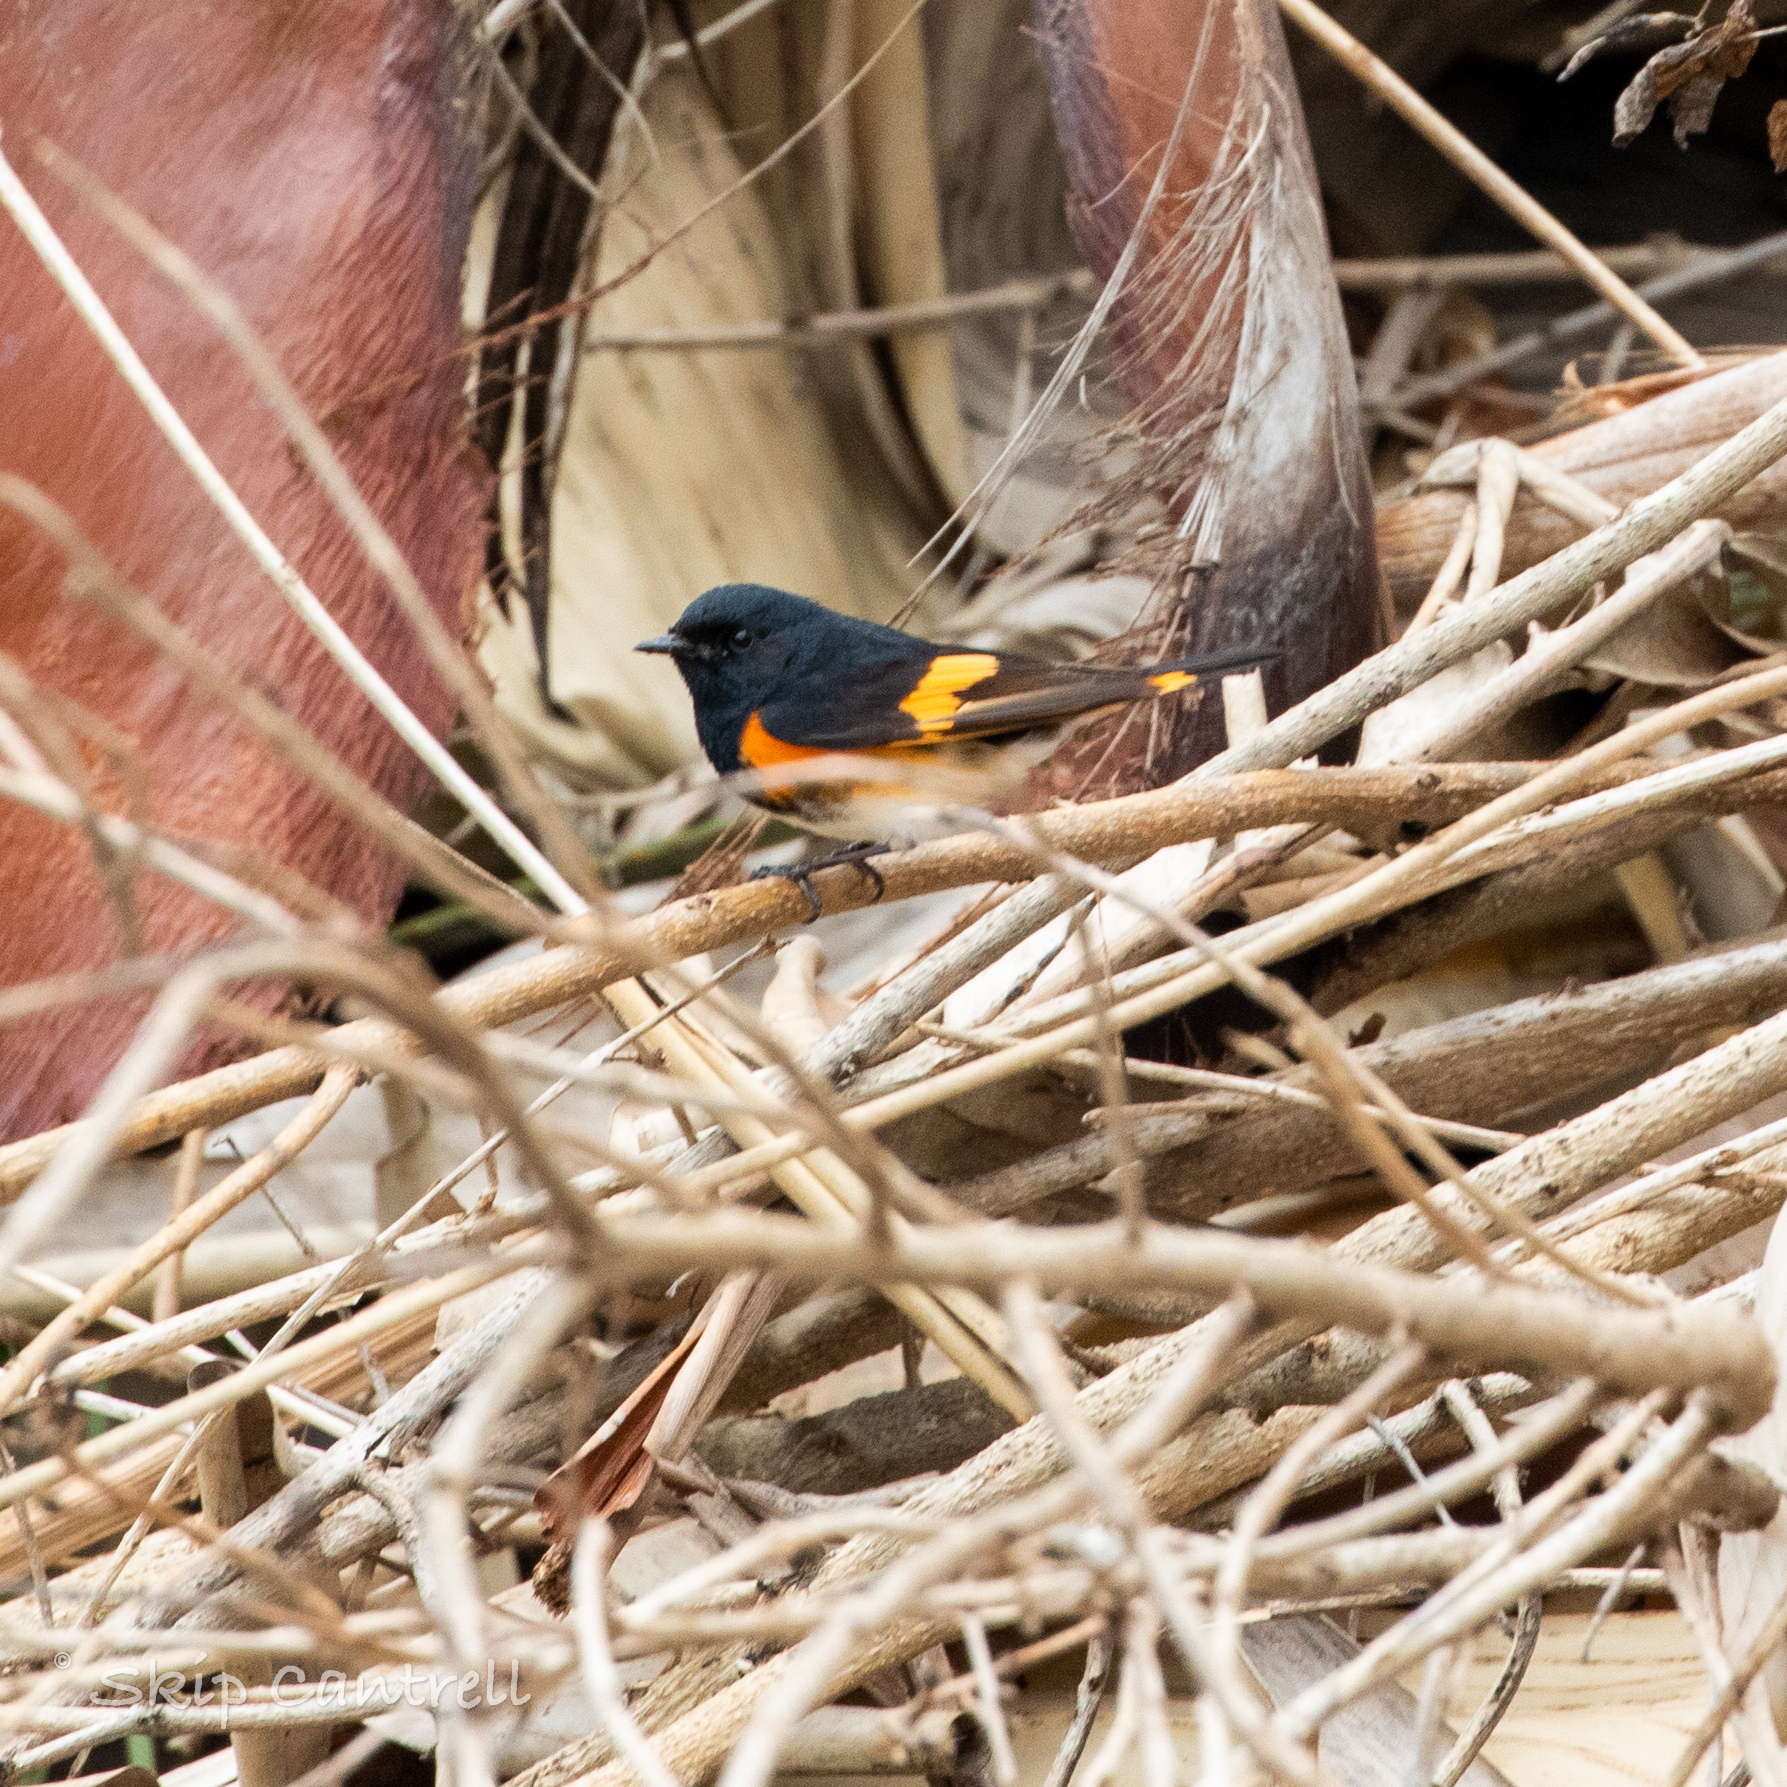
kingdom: Animalia
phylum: Chordata
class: Aves
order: Passeriformes
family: Parulidae
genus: Setophaga
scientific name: Setophaga ruticilla
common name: American redstart
